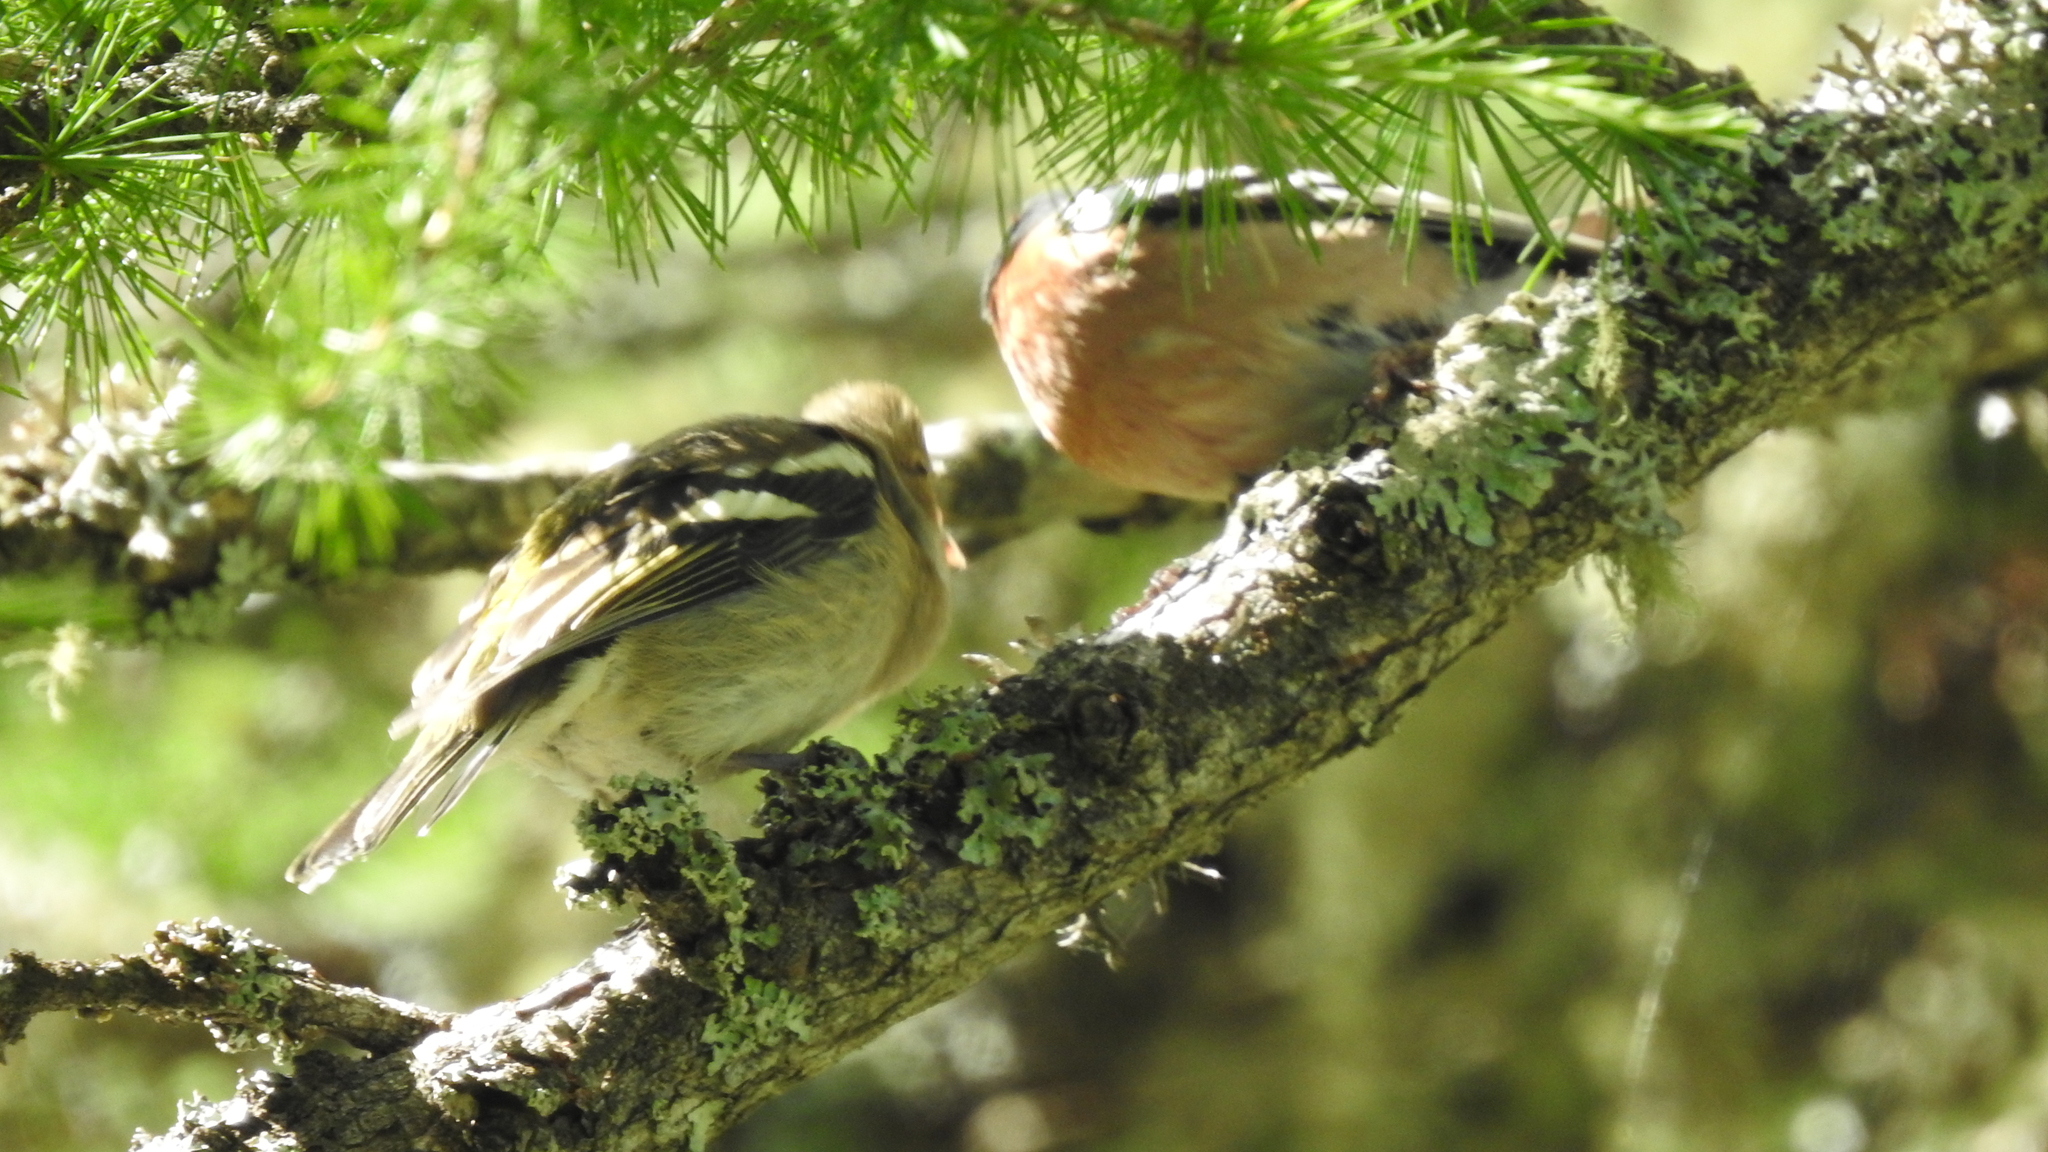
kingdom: Animalia
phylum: Chordata
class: Aves
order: Passeriformes
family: Fringillidae
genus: Fringilla
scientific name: Fringilla coelebs
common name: Common chaffinch
